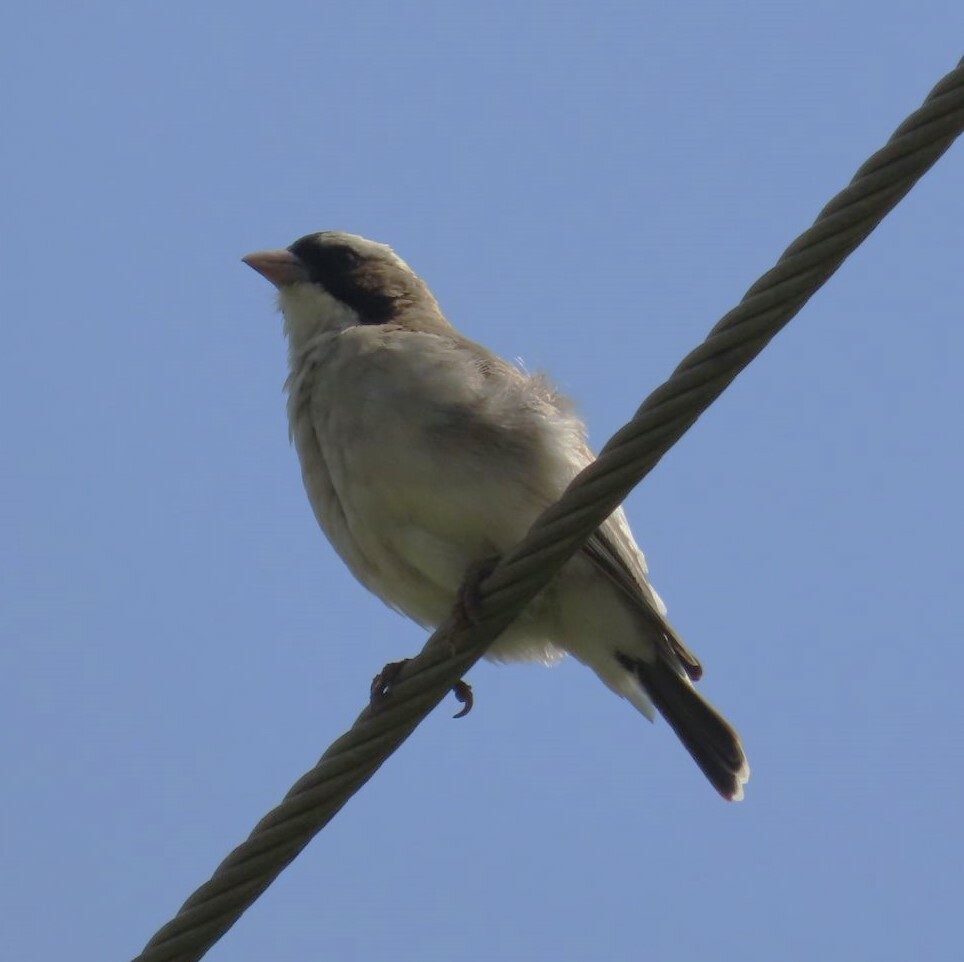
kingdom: Animalia
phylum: Chordata
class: Aves
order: Passeriformes
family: Passeridae
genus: Plocepasser
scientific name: Plocepasser mahali
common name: White-browed sparrow-weaver
